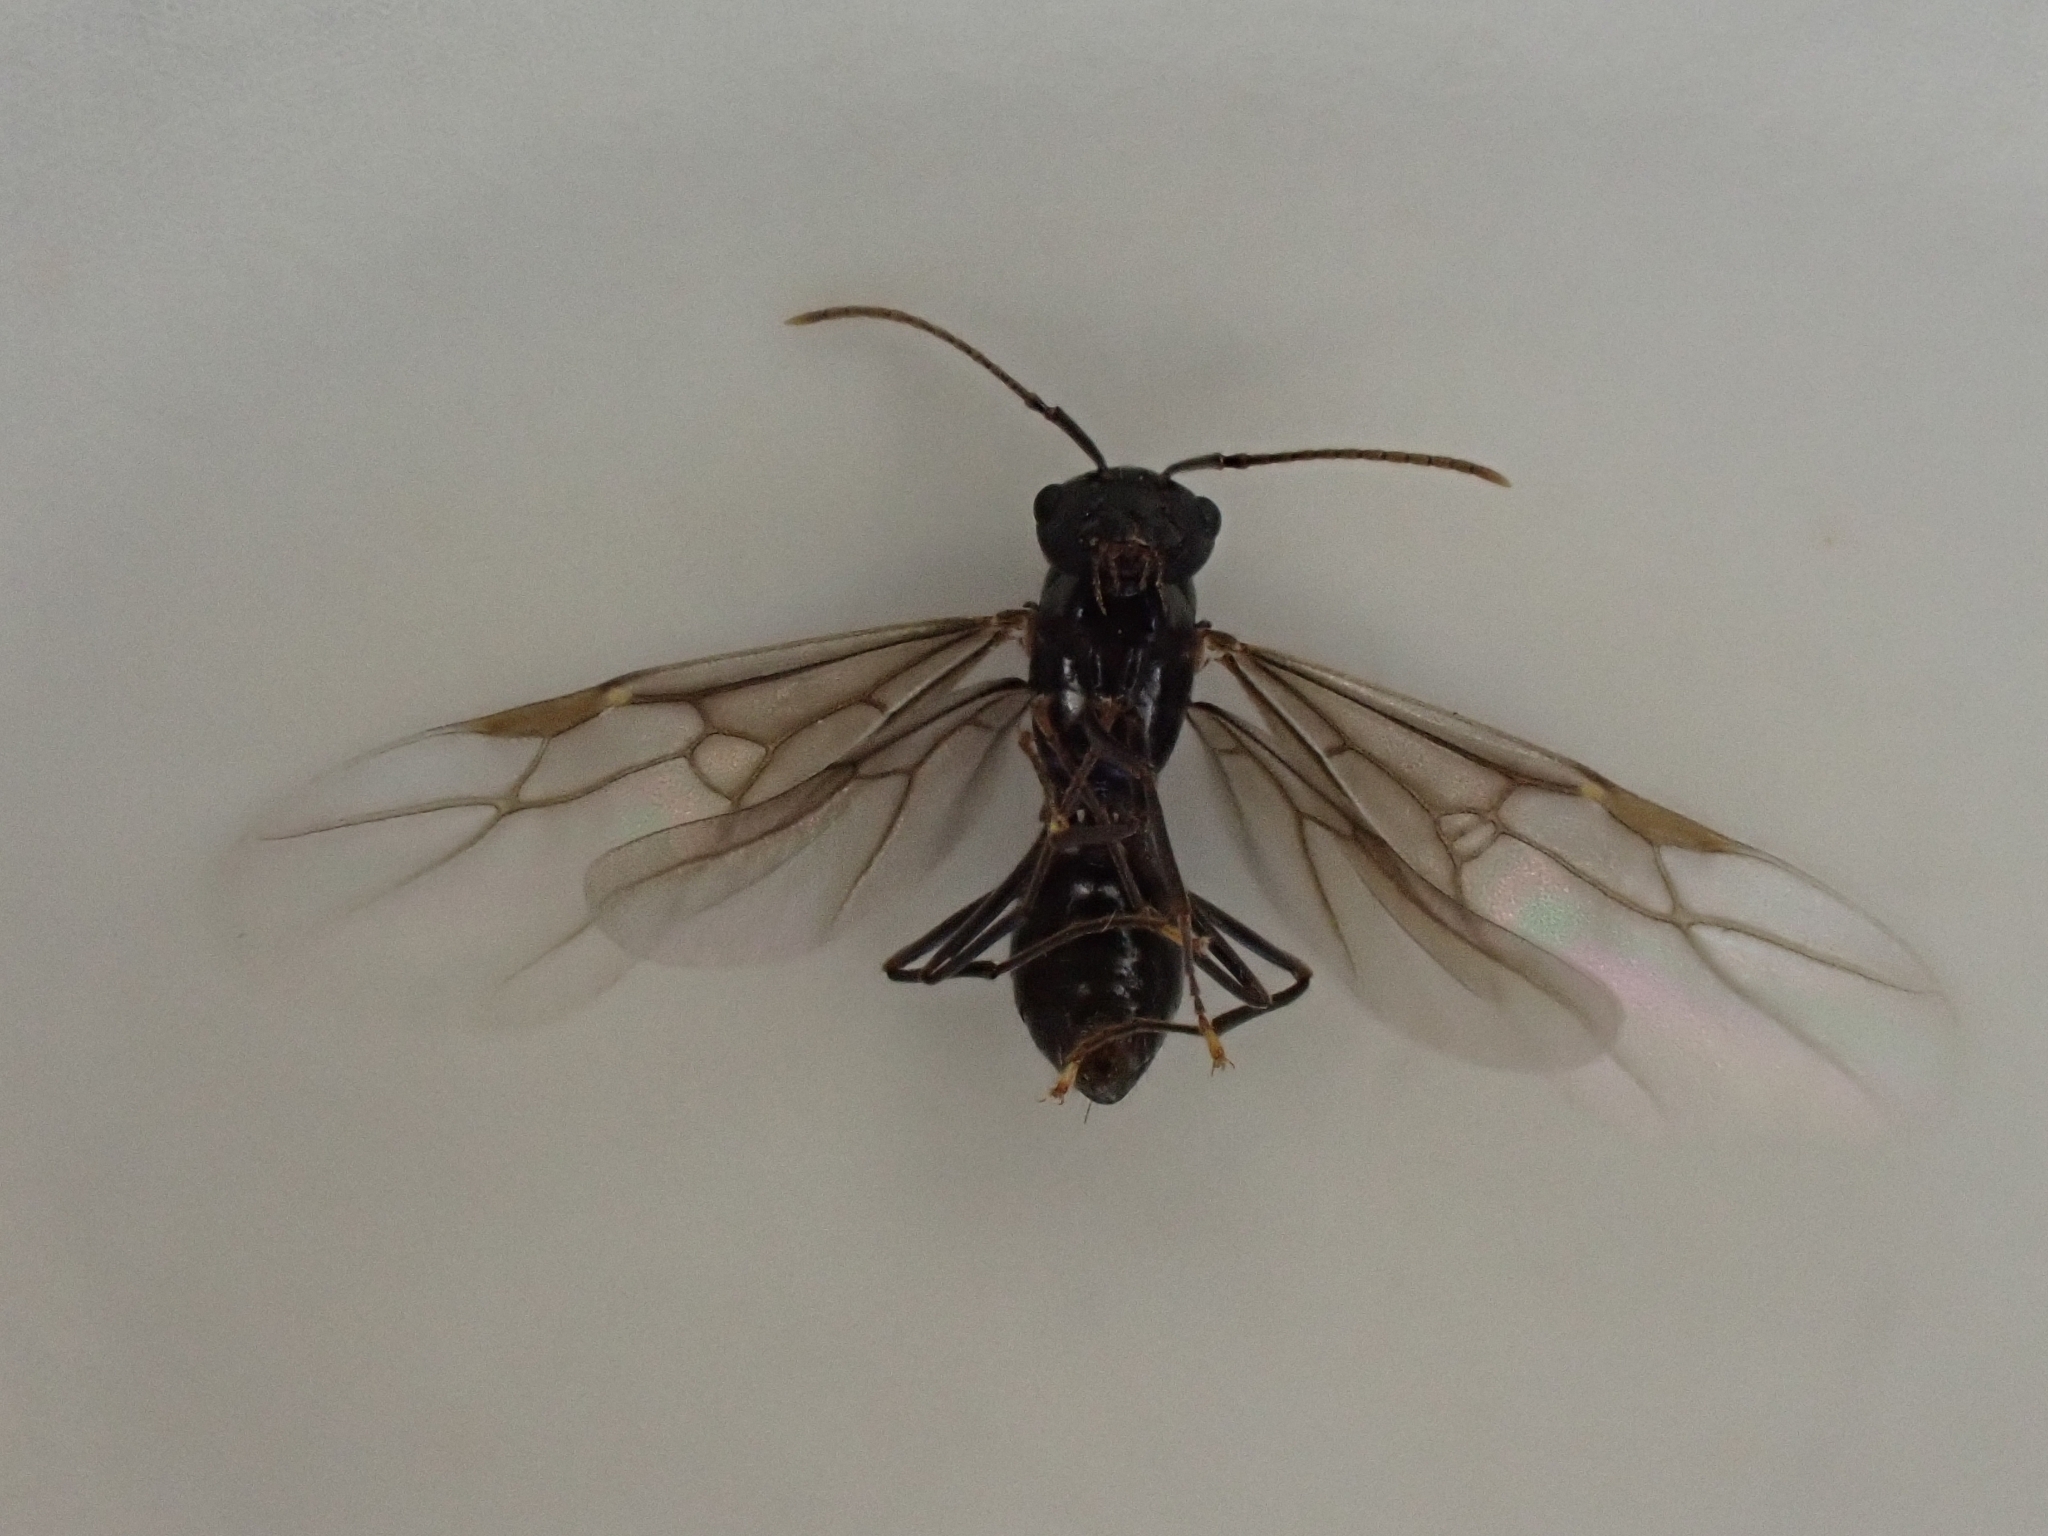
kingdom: Animalia
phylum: Arthropoda
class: Insecta
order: Hymenoptera
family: Formicidae
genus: Lasius
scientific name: Lasius fuliginosus
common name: Jet ant
